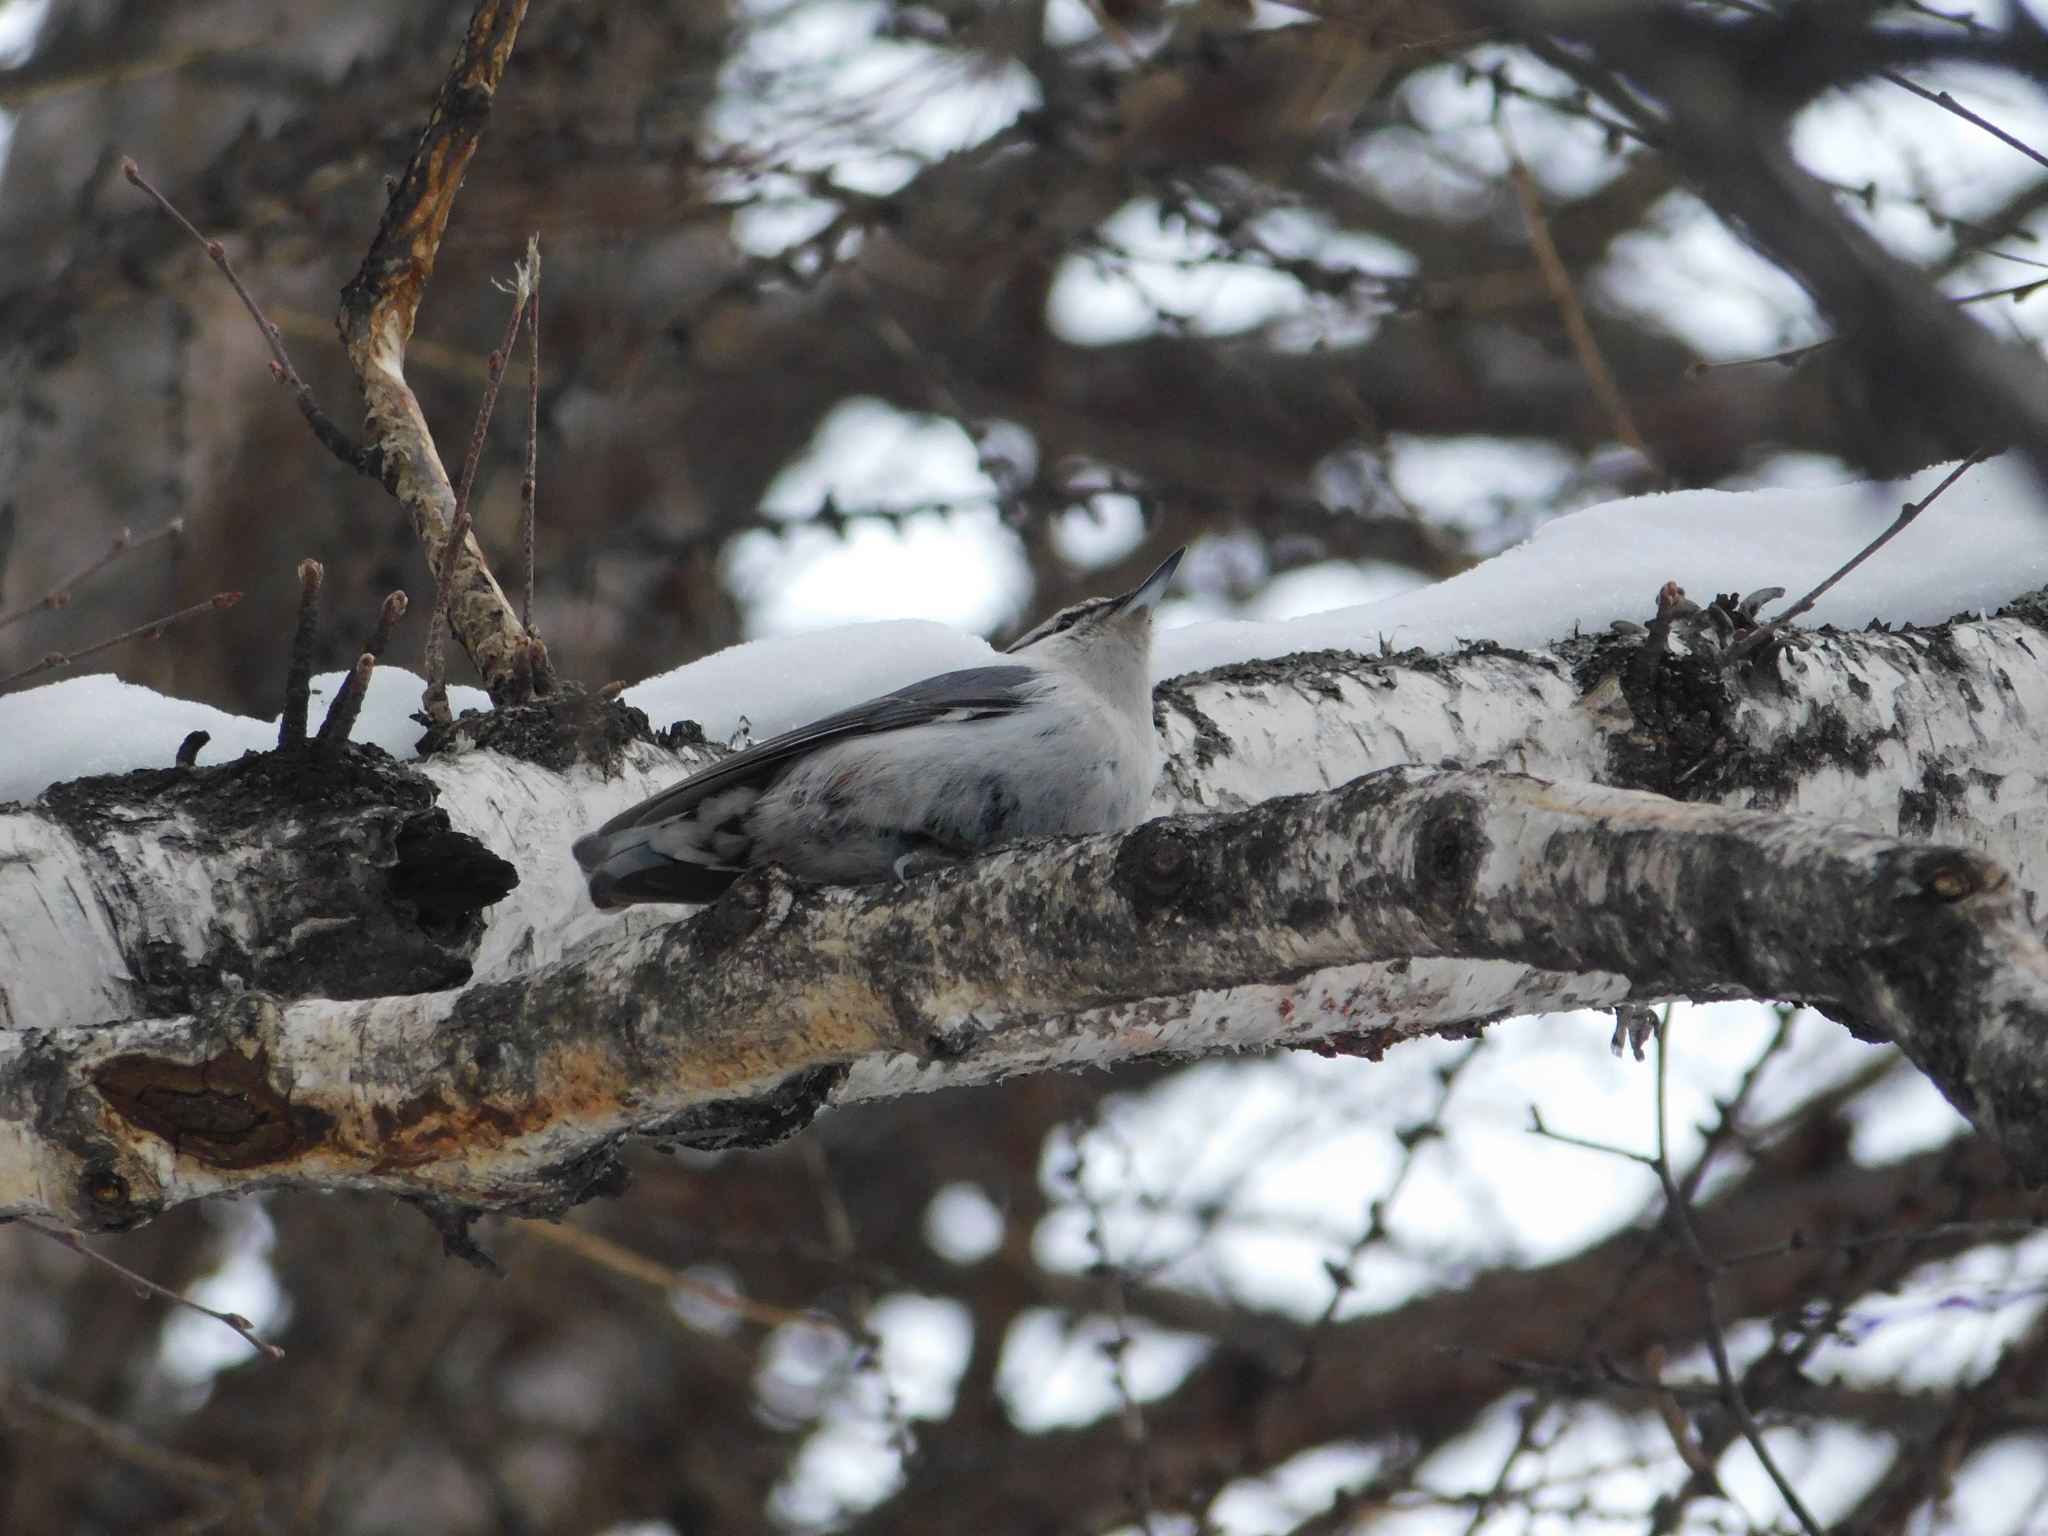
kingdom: Animalia
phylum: Chordata
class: Aves
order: Passeriformes
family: Sittidae
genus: Sitta
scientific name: Sitta europaea
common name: Eurasian nuthatch
